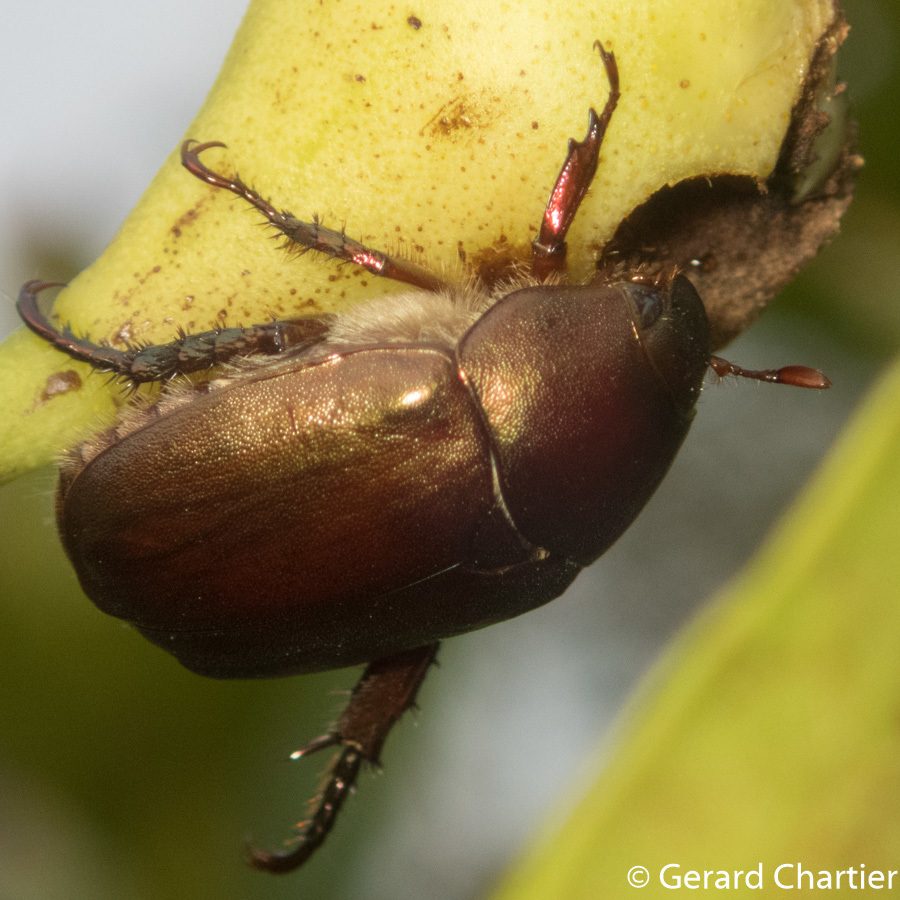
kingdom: Animalia
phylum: Arthropoda
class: Insecta
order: Coleoptera
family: Scarabaeidae
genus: Anomala
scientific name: Anomala densa
